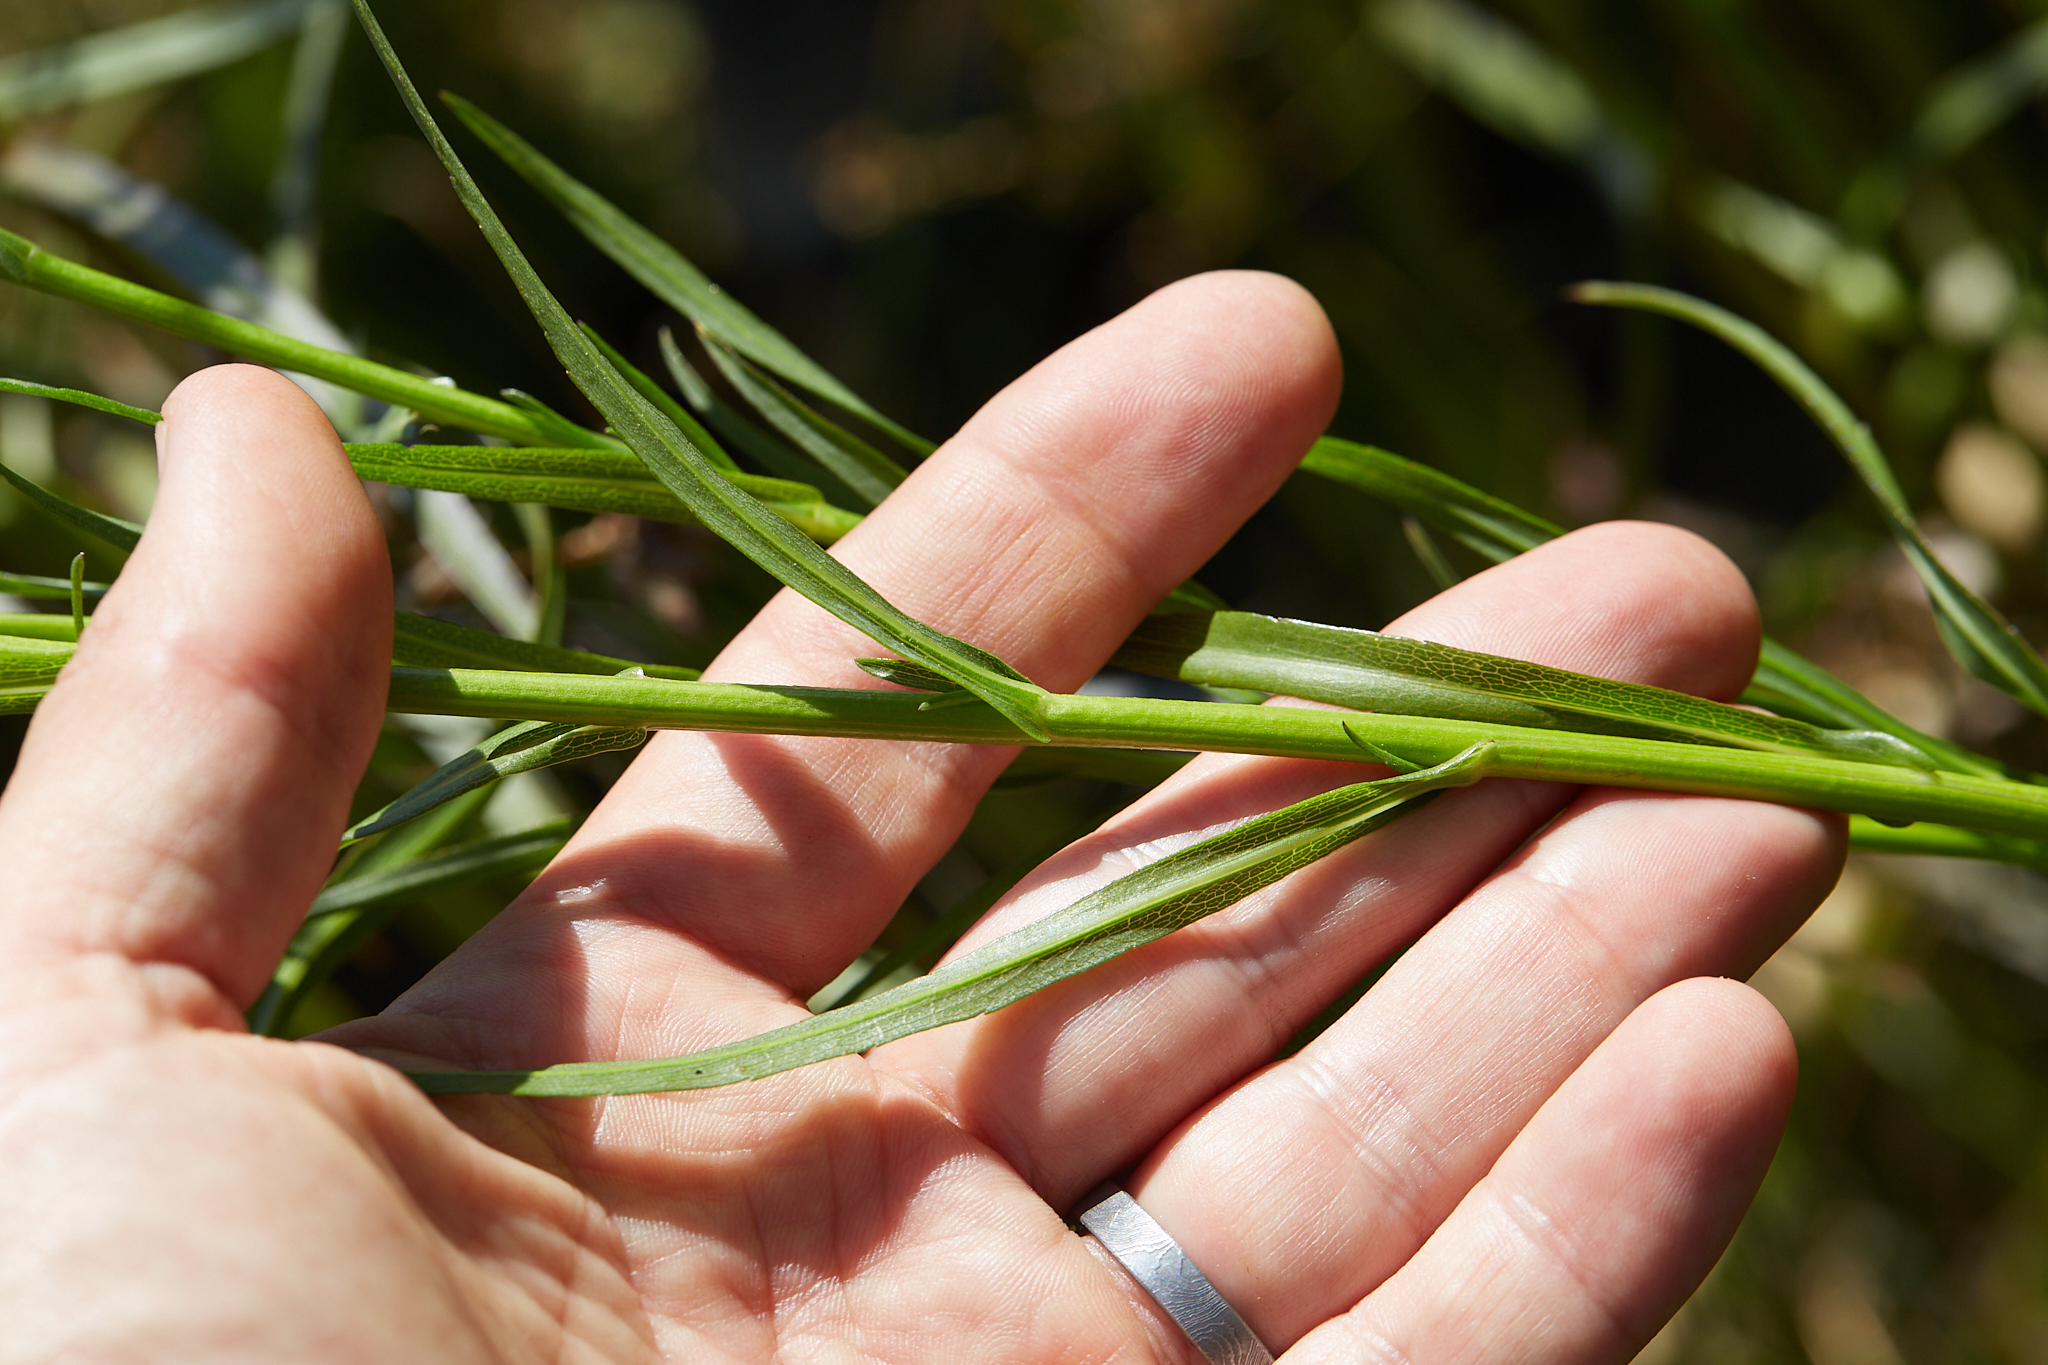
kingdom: Plantae
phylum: Tracheophyta
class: Magnoliopsida
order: Asterales
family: Asteraceae
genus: Symphyotrichum
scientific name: Symphyotrichum lentum
